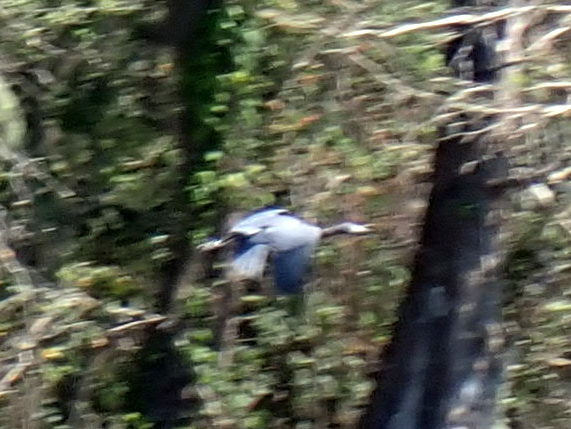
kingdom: Animalia
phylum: Chordata
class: Aves
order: Pelecaniformes
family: Ardeidae
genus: Egretta
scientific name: Egretta caerulea
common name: Little blue heron
